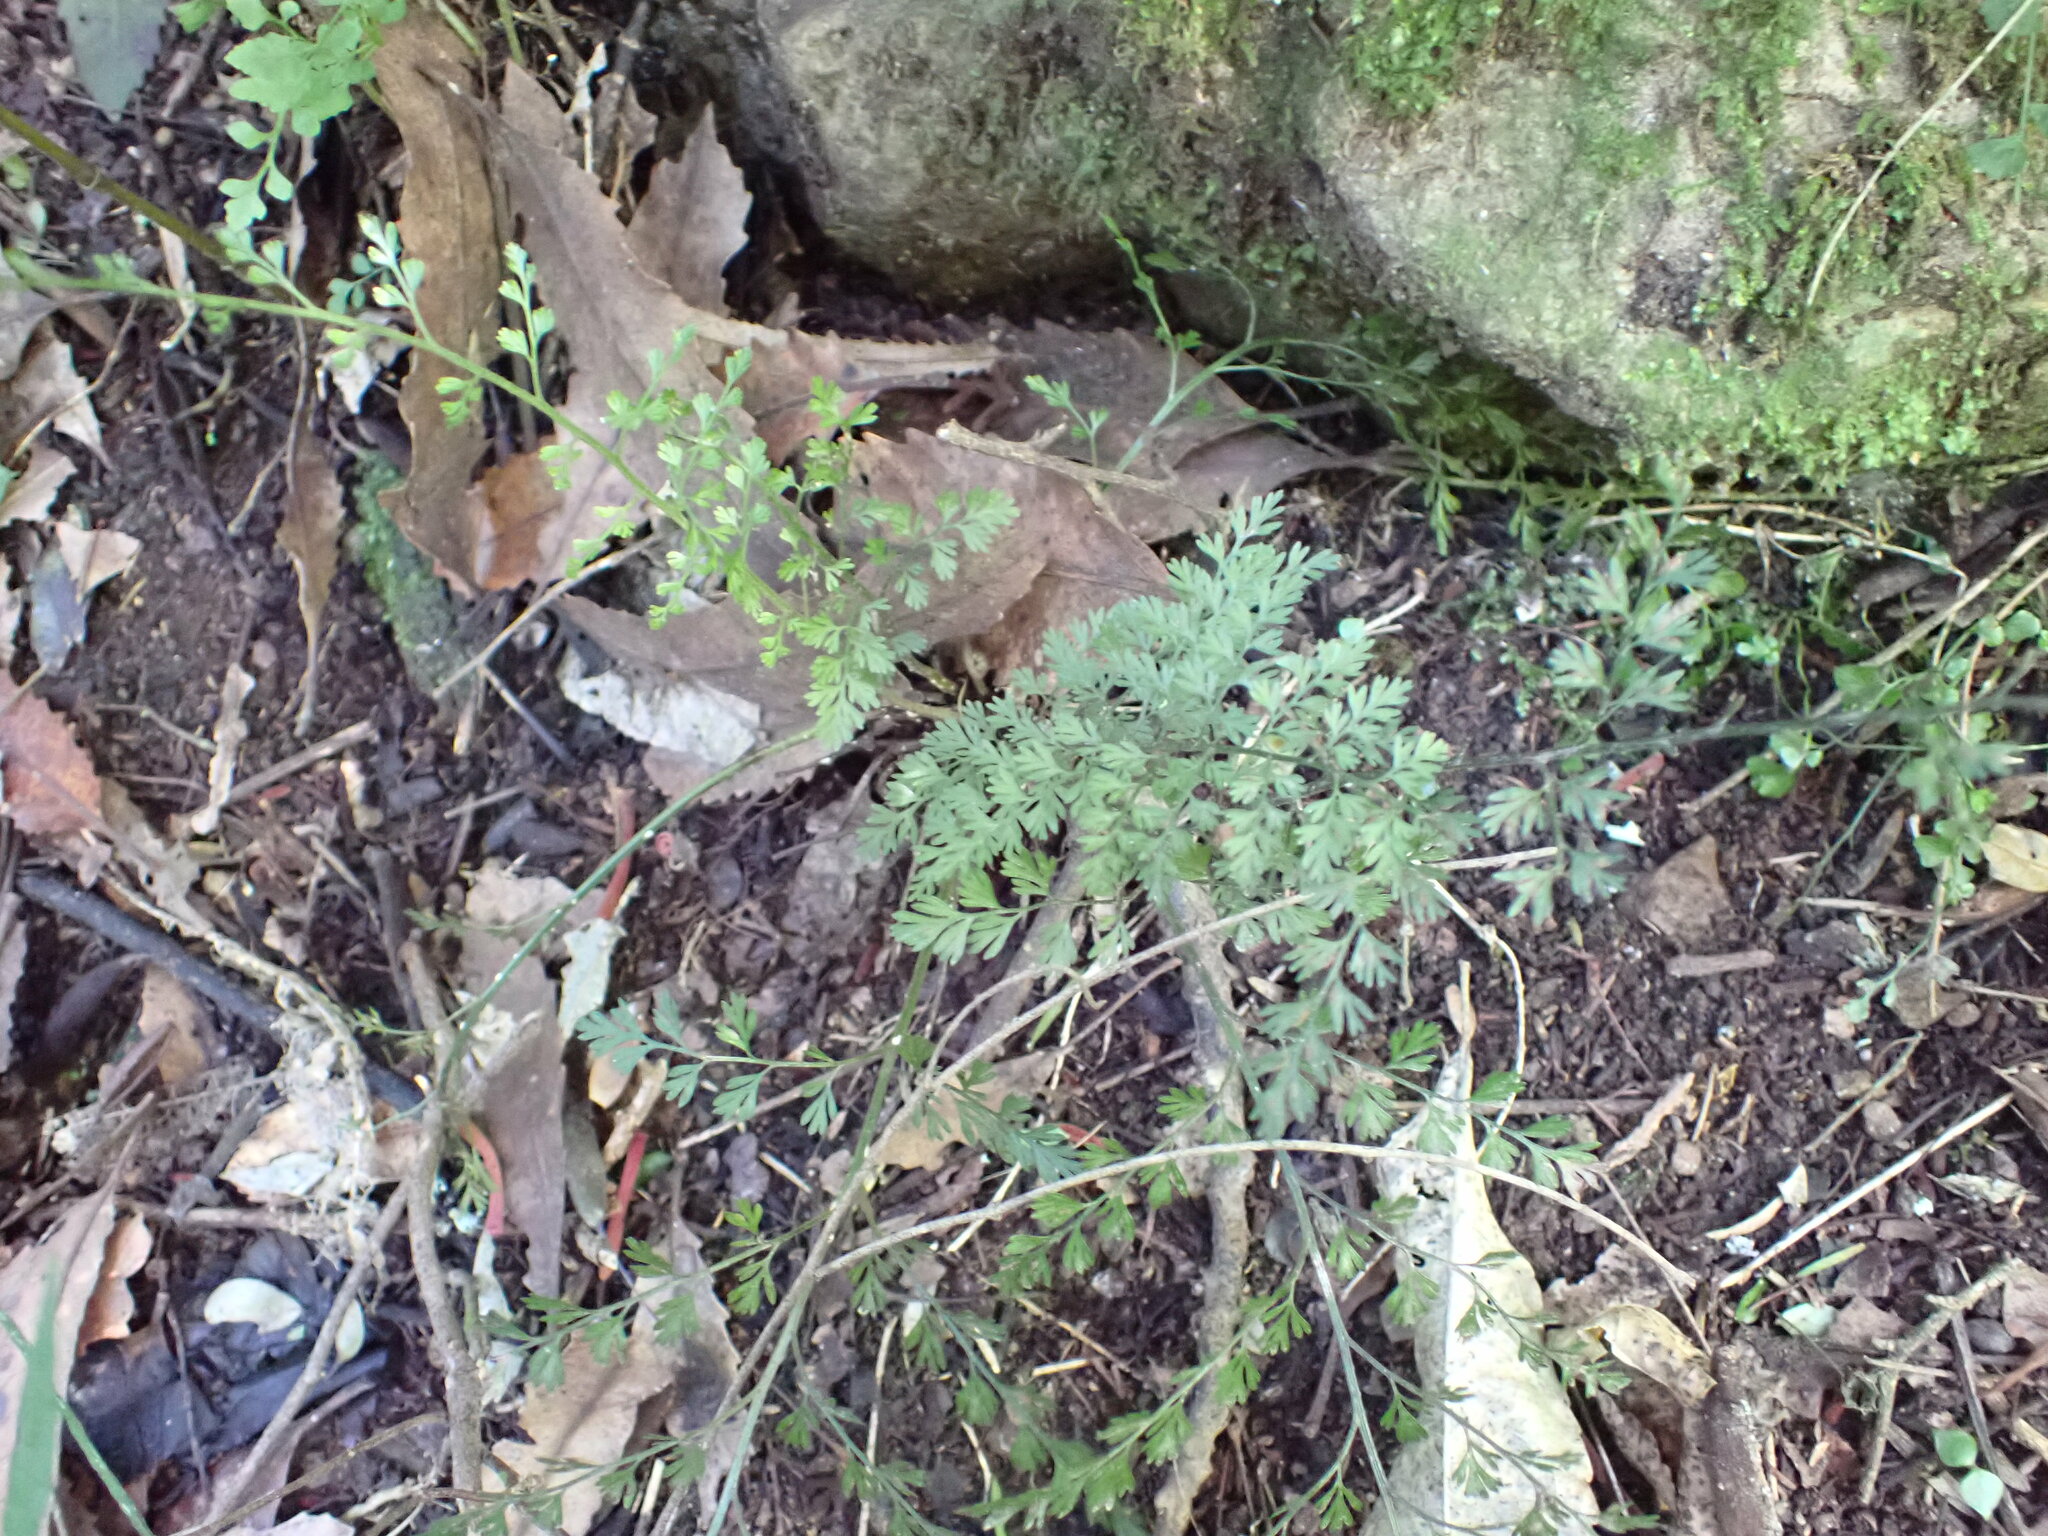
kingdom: Plantae
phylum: Tracheophyta
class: Polypodiopsida
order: Polypodiales
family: Aspleniaceae
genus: Asplenium
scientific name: Asplenium hookerianum
